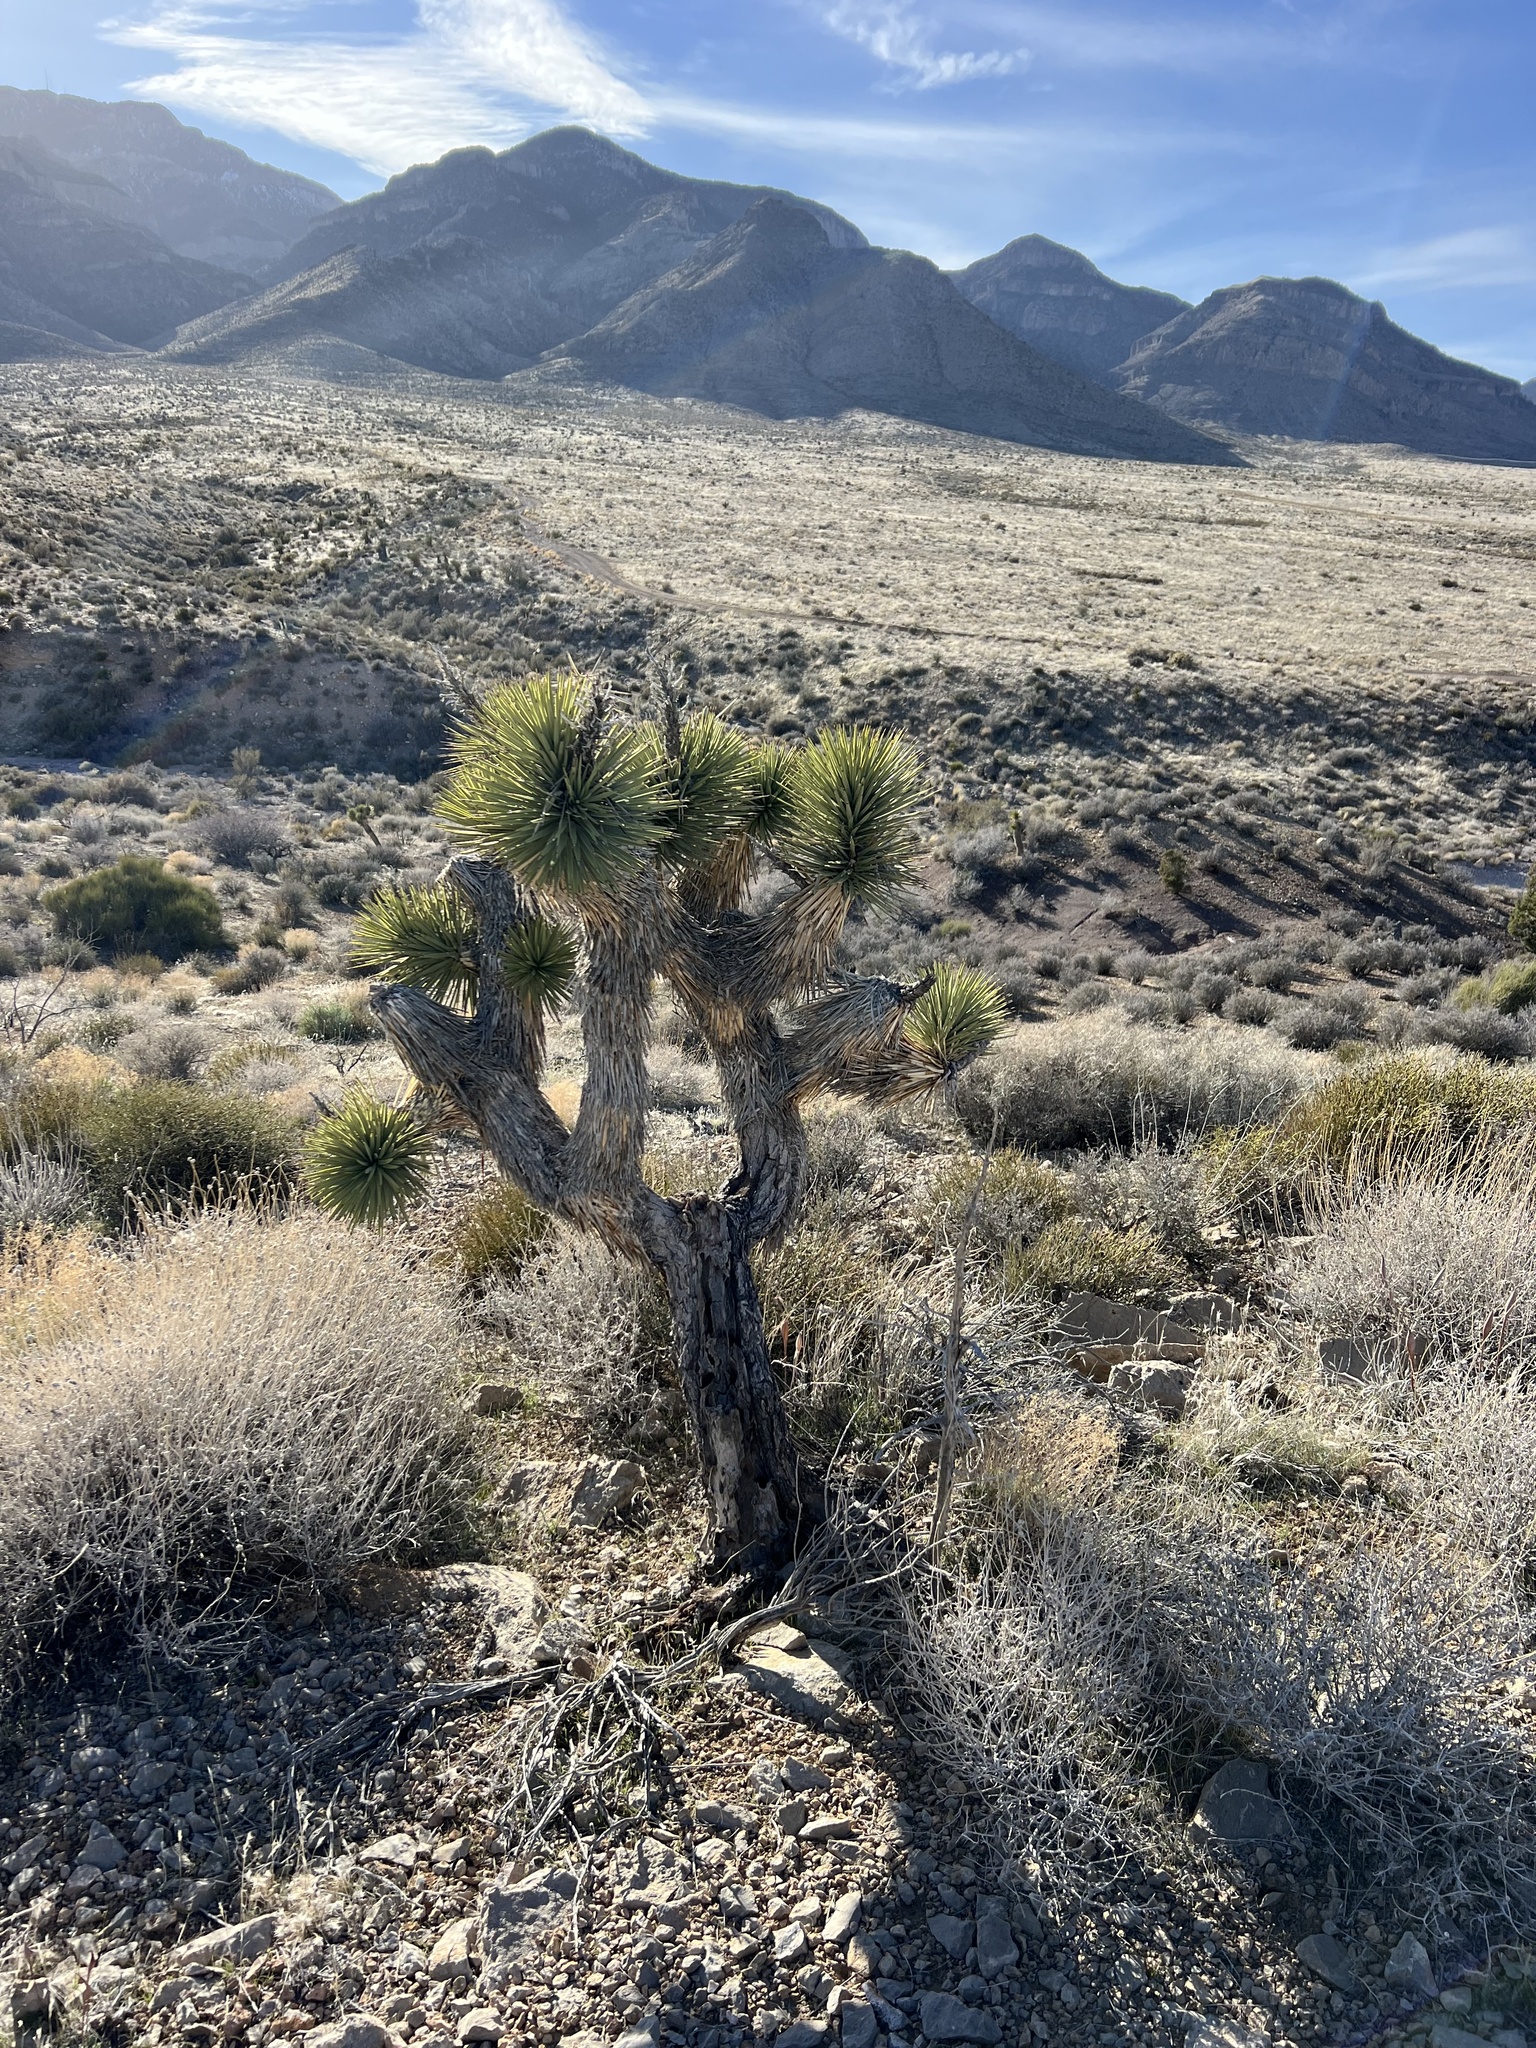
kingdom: Plantae
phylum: Tracheophyta
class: Liliopsida
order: Asparagales
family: Asparagaceae
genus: Yucca
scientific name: Yucca brevifolia
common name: Joshua tree
